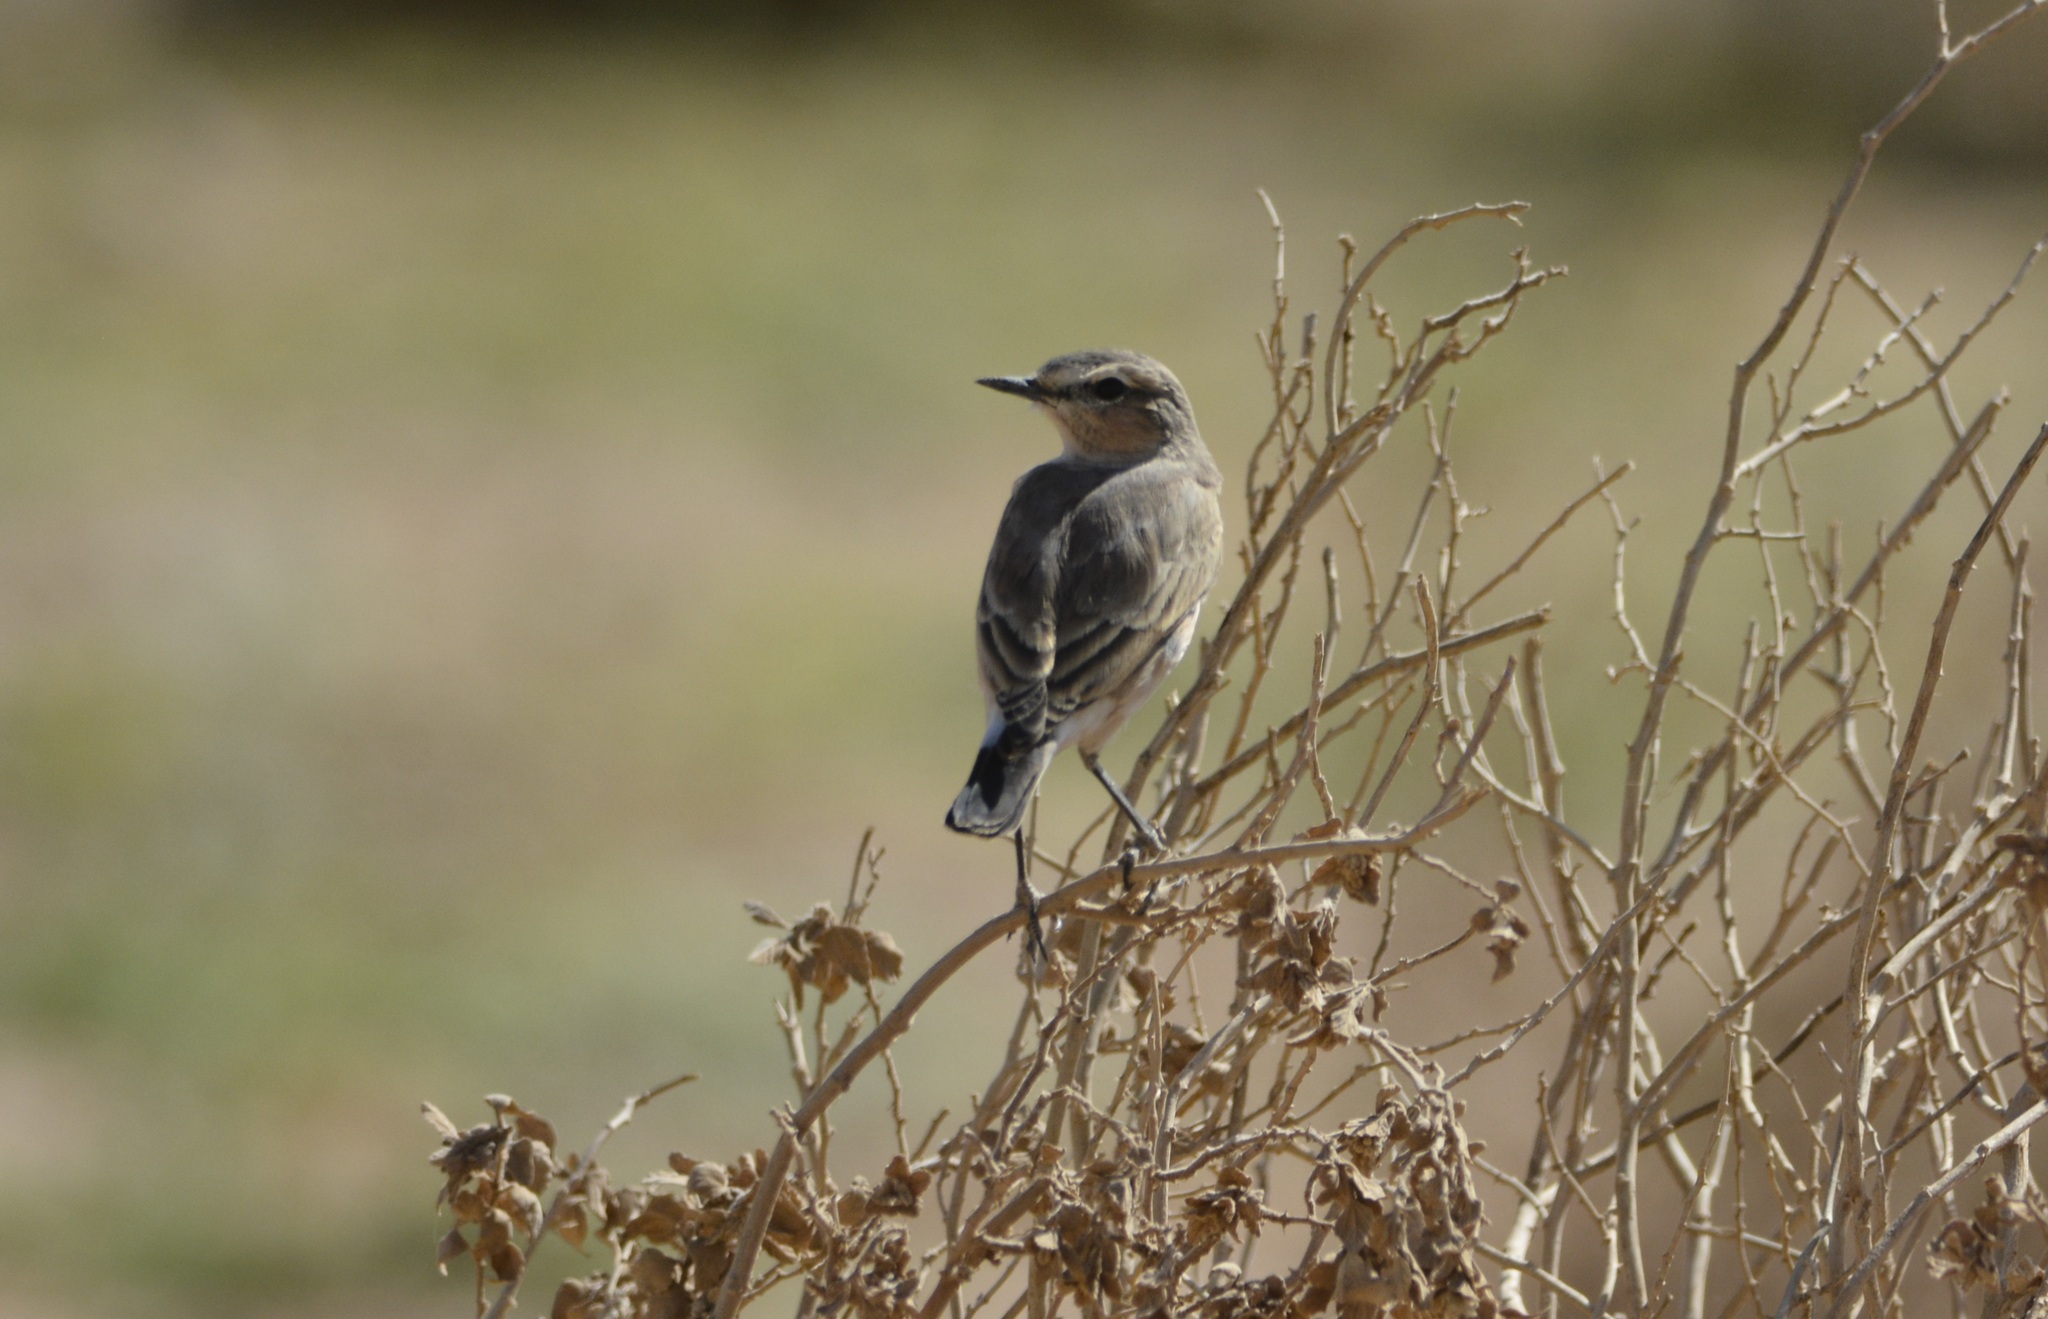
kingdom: Animalia
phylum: Chordata
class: Aves
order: Passeriformes
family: Muscicapidae
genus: Oenanthe
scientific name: Oenanthe isabellina
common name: Isabelline wheatear
